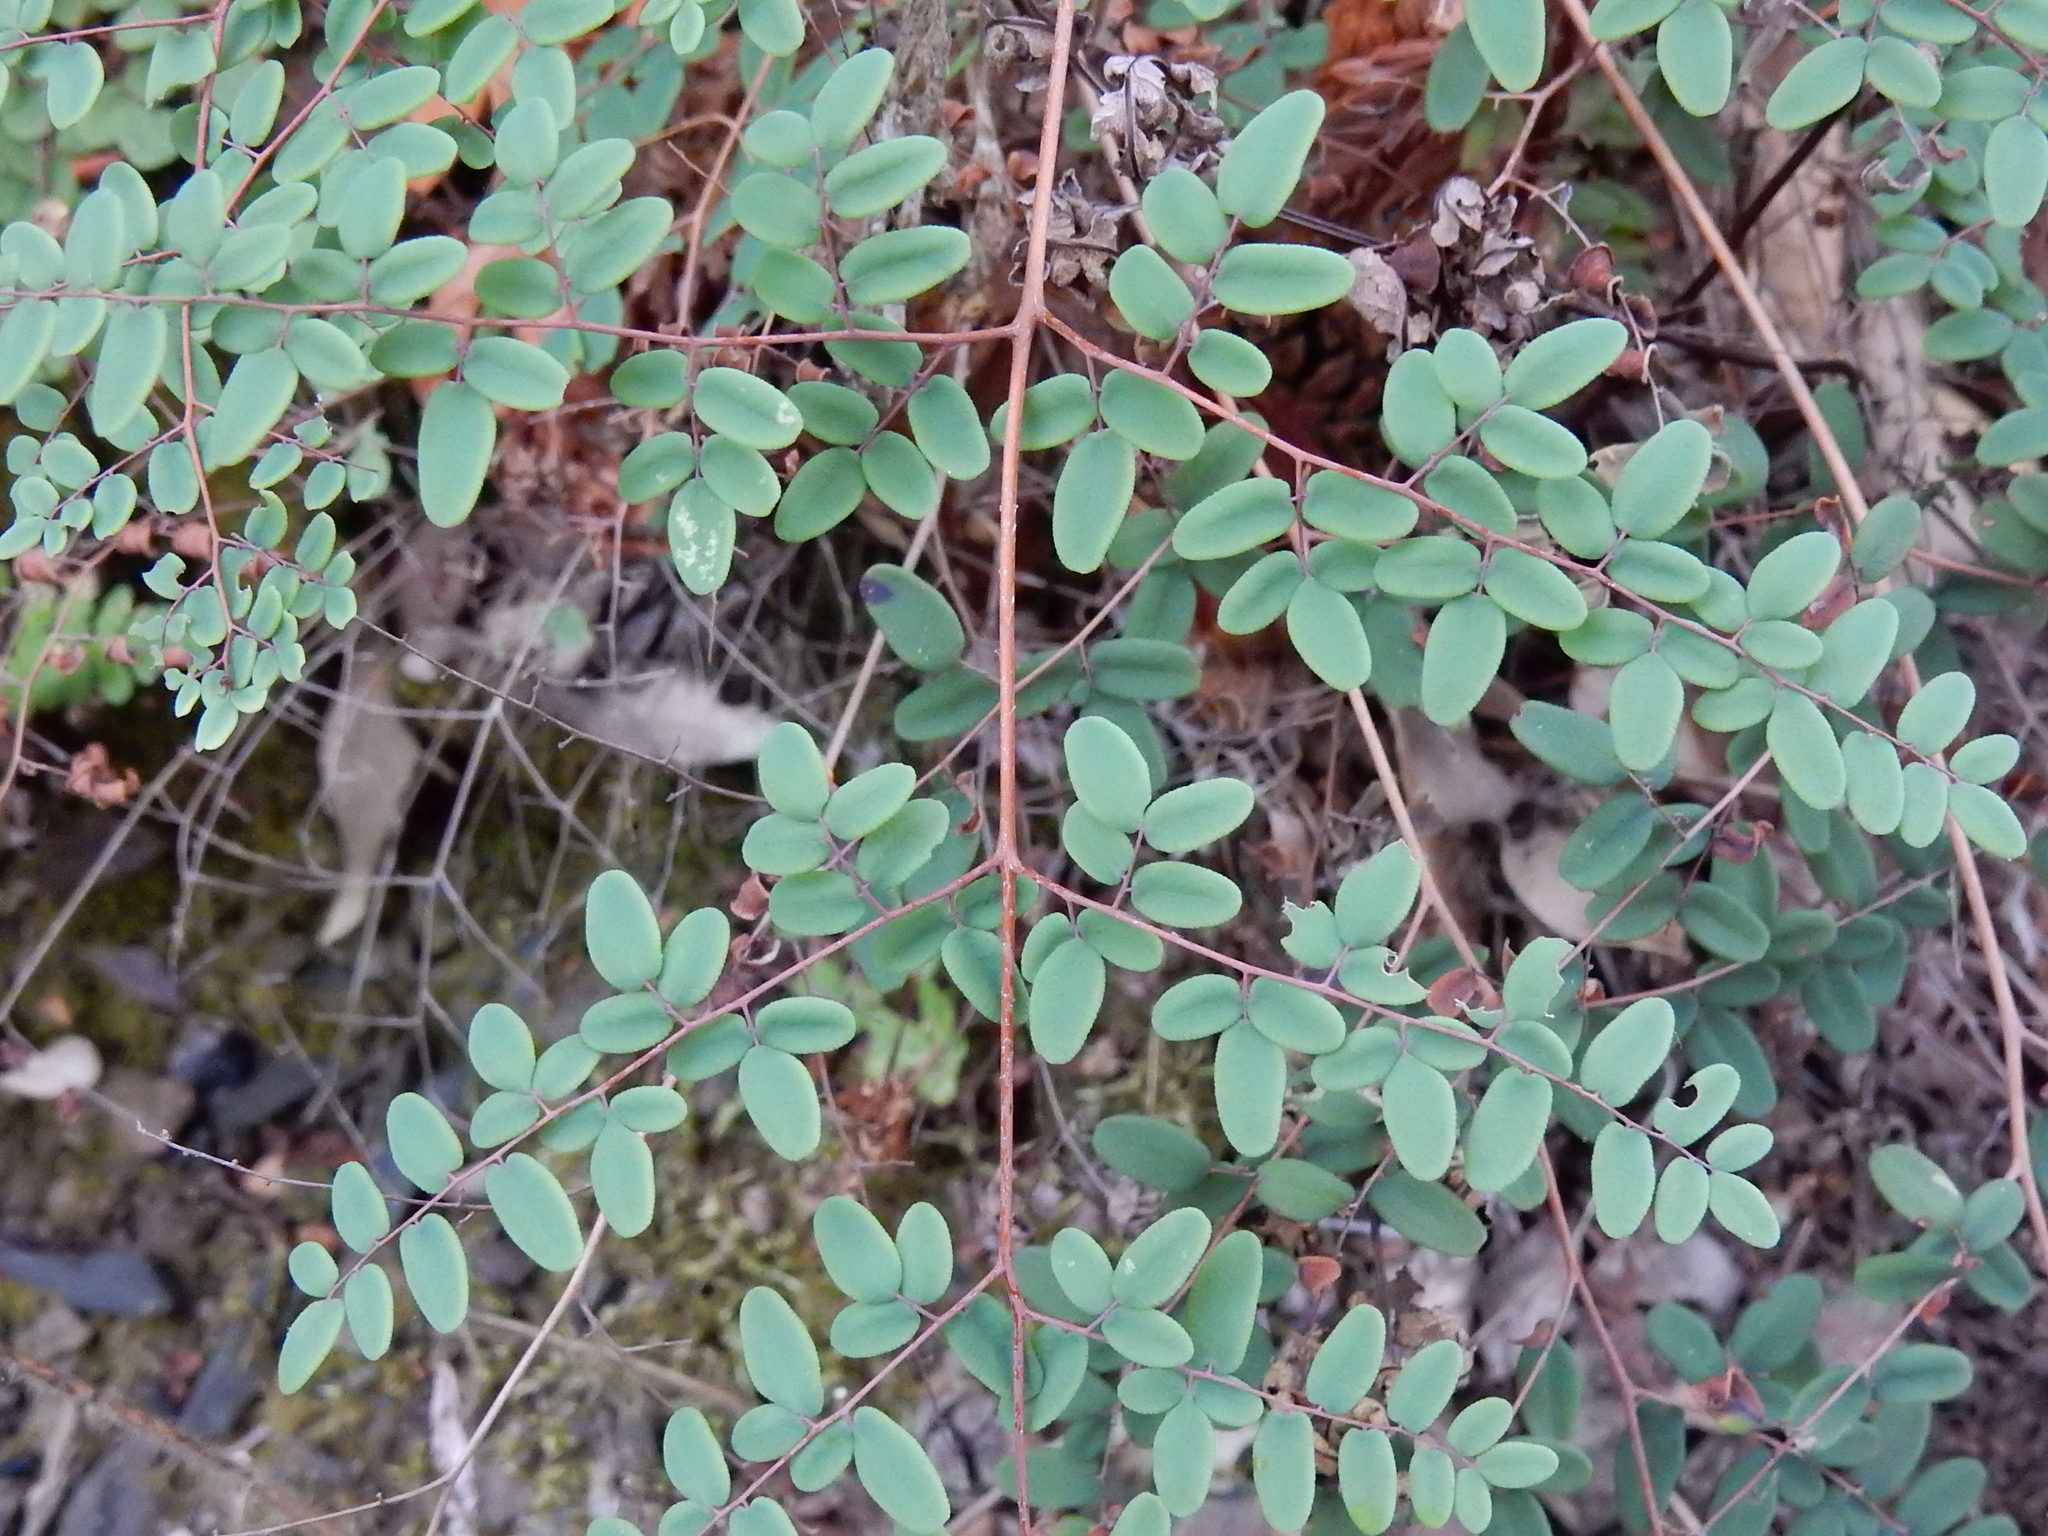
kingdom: Plantae
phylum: Tracheophyta
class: Polypodiopsida
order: Polypodiales
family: Pteridaceae
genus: Pellaea
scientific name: Pellaea andromedifolia
